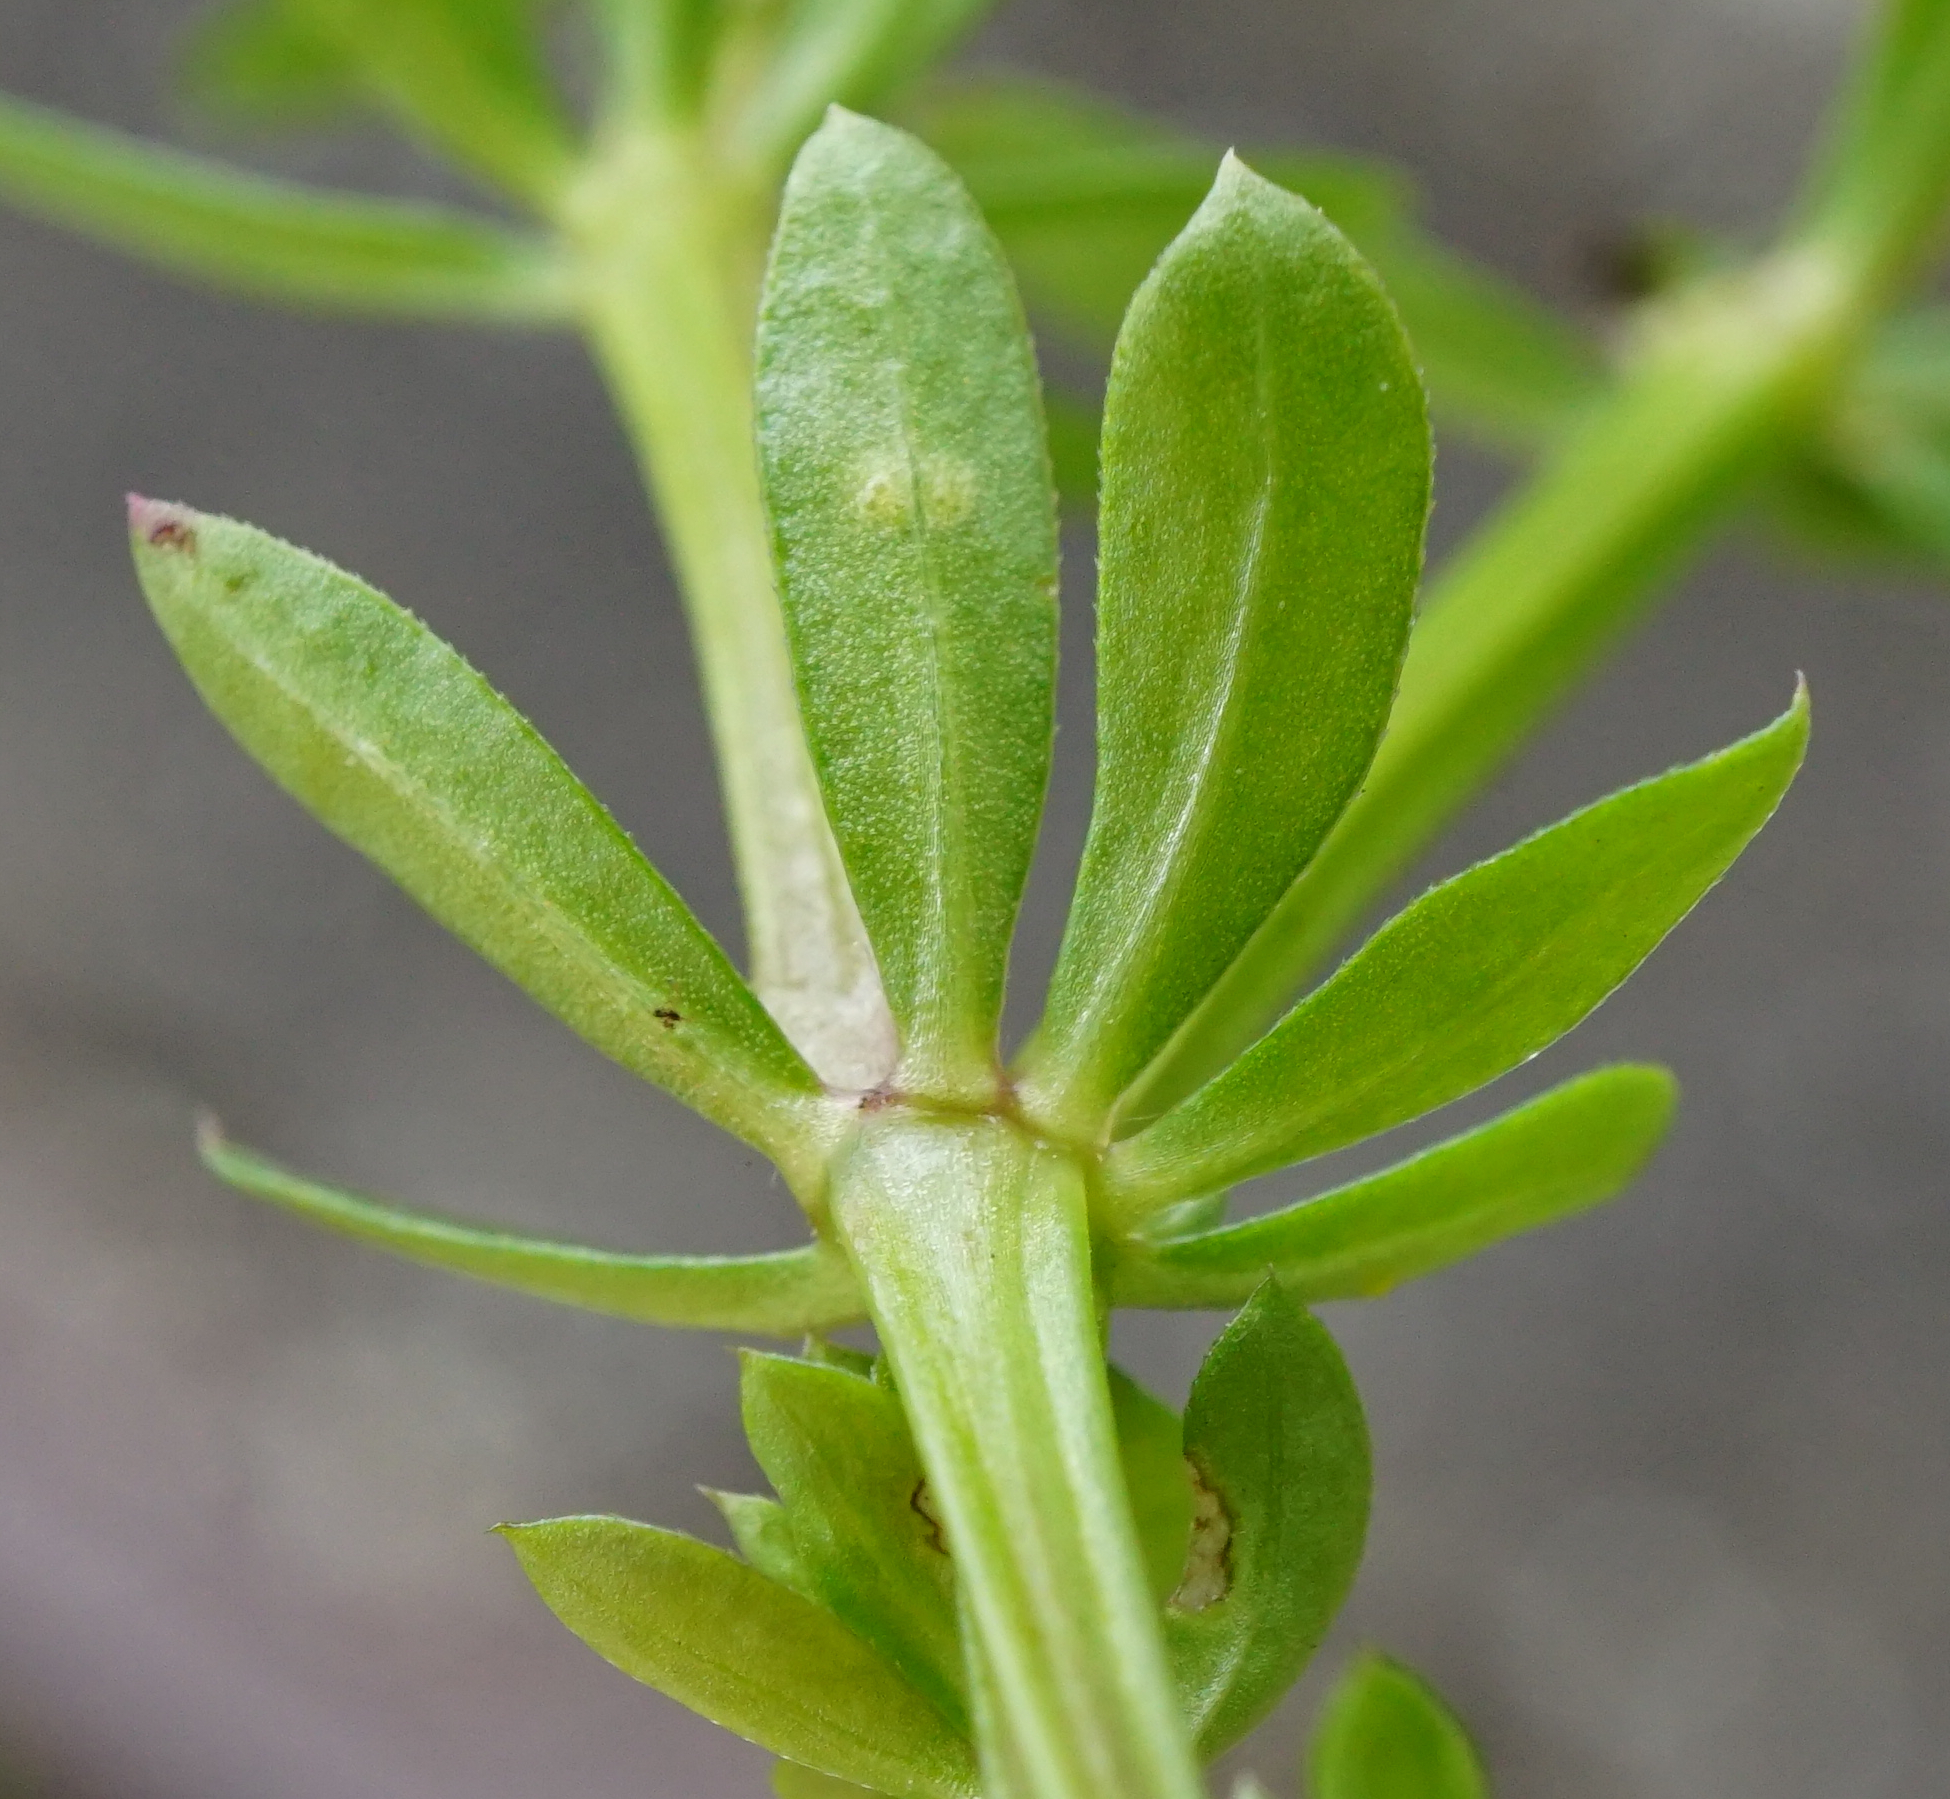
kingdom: Plantae
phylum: Tracheophyta
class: Magnoliopsida
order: Gentianales
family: Rubiaceae
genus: Galium
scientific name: Galium album
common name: White bedstraw
